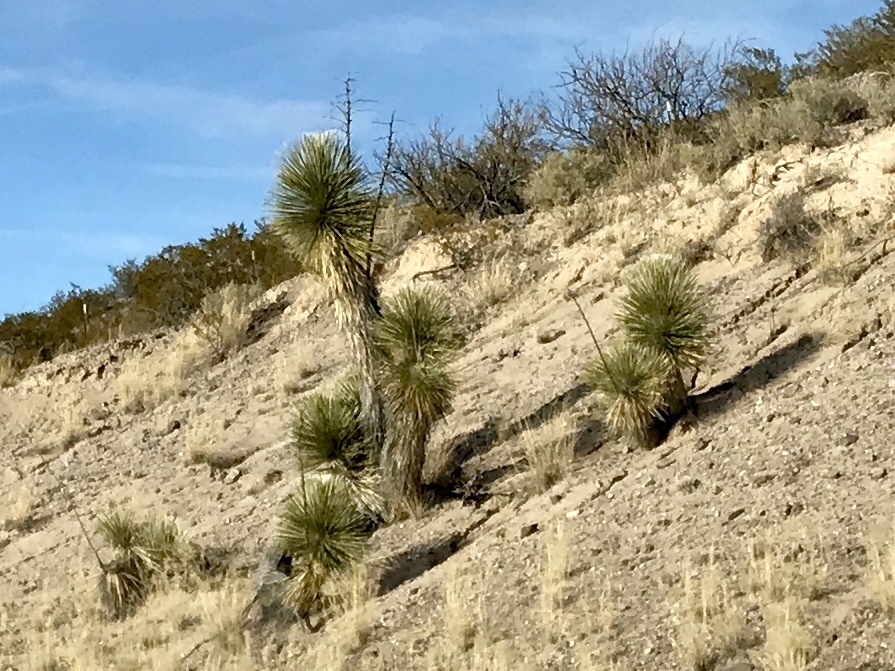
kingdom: Plantae
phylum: Tracheophyta
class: Liliopsida
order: Asparagales
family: Asparagaceae
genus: Yucca
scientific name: Yucca elata
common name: Palmella
